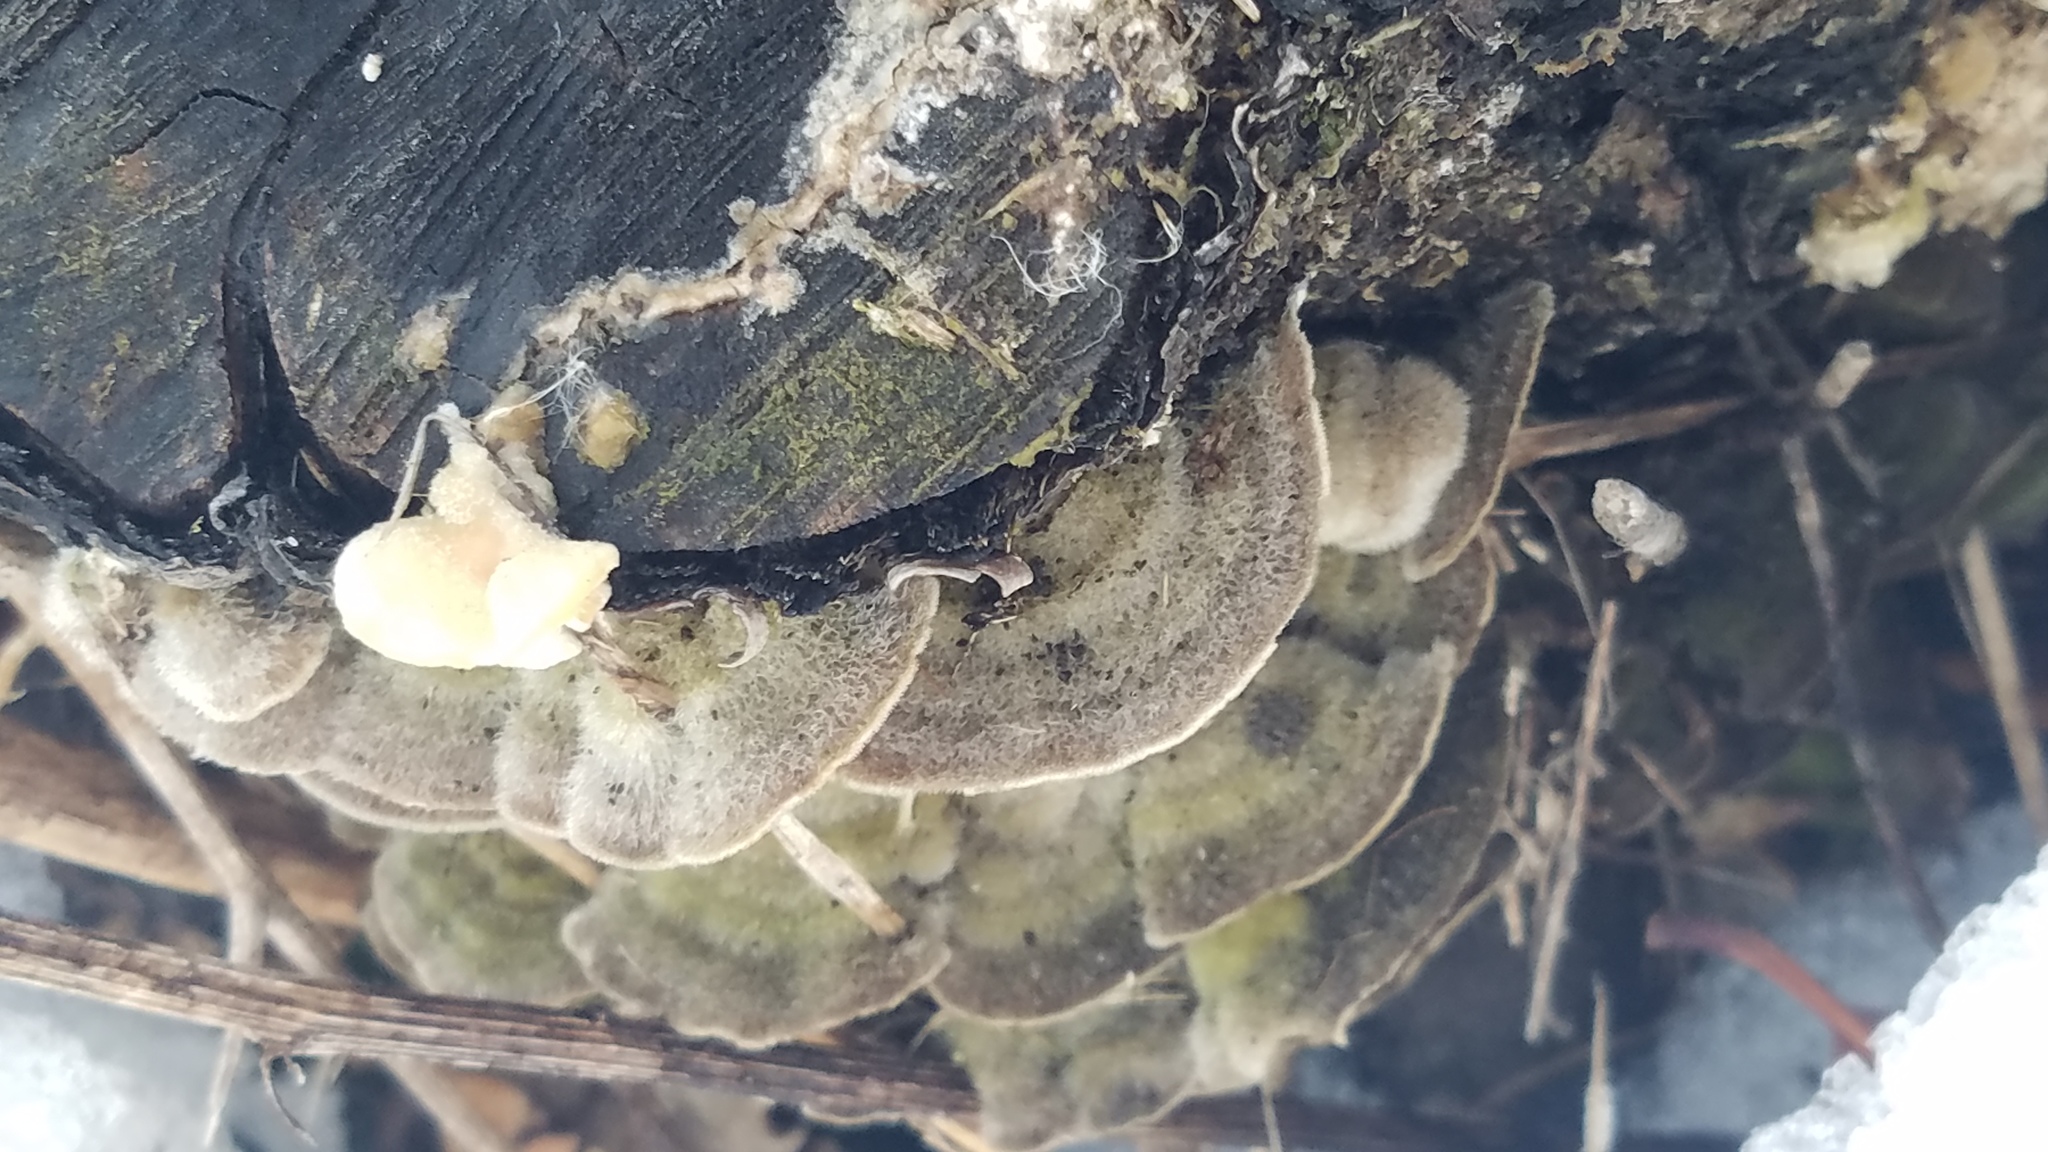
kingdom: Fungi
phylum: Basidiomycota
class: Agaricomycetes
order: Polyporales
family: Cerrenaceae
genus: Cerrena
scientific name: Cerrena unicolor
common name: Mossy maze polypore
